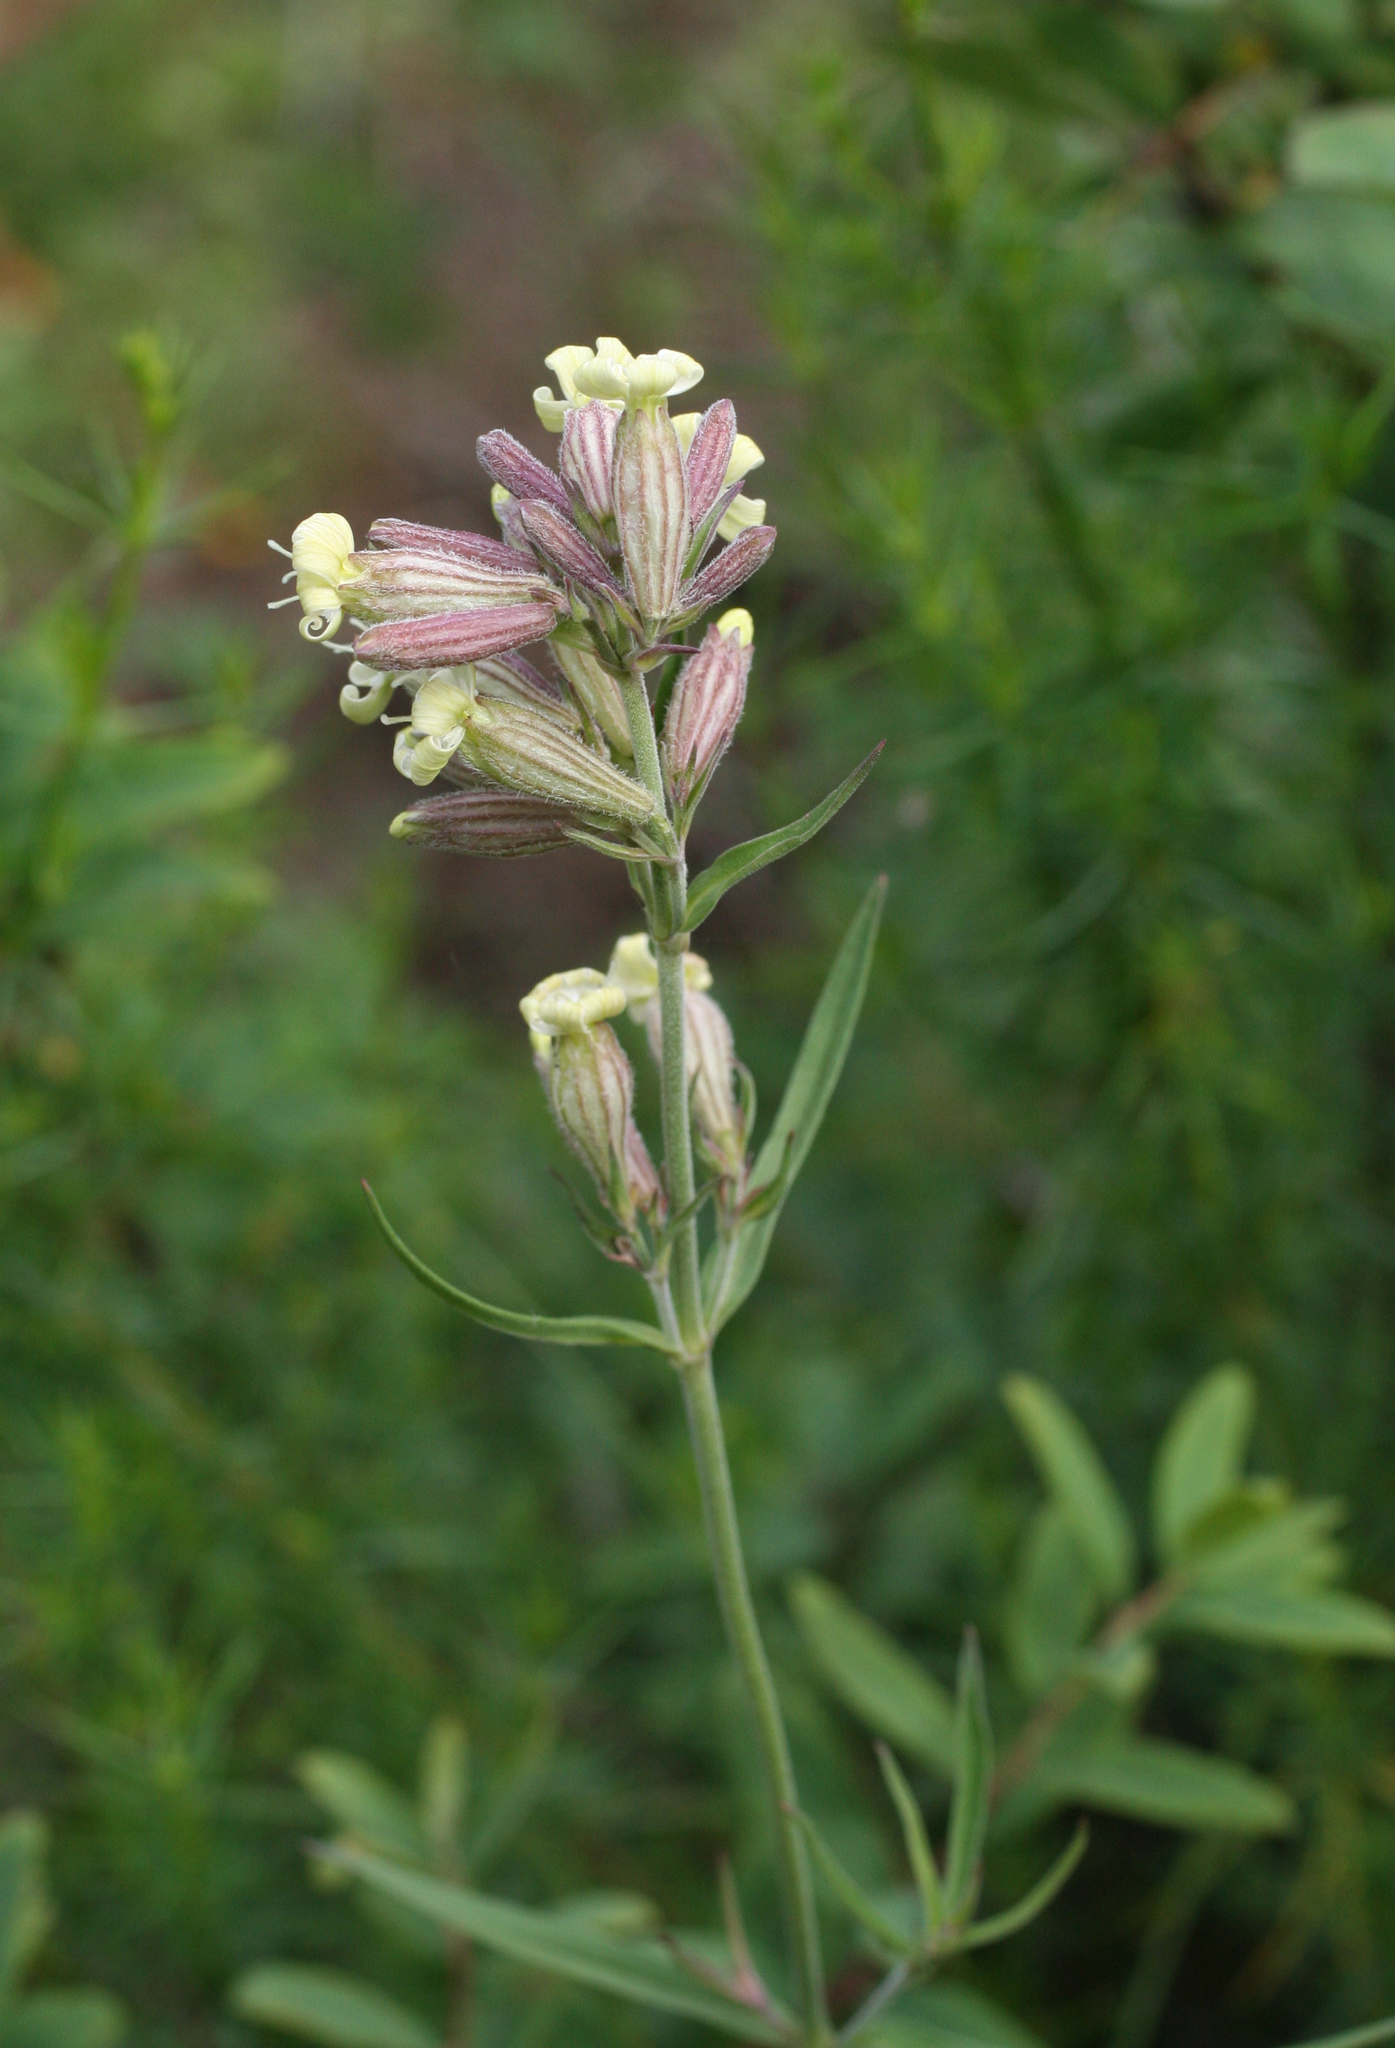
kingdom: Plantae
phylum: Tracheophyta
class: Magnoliopsida
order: Caryophyllales
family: Caryophyllaceae
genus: Silene
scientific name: Silene amoena
